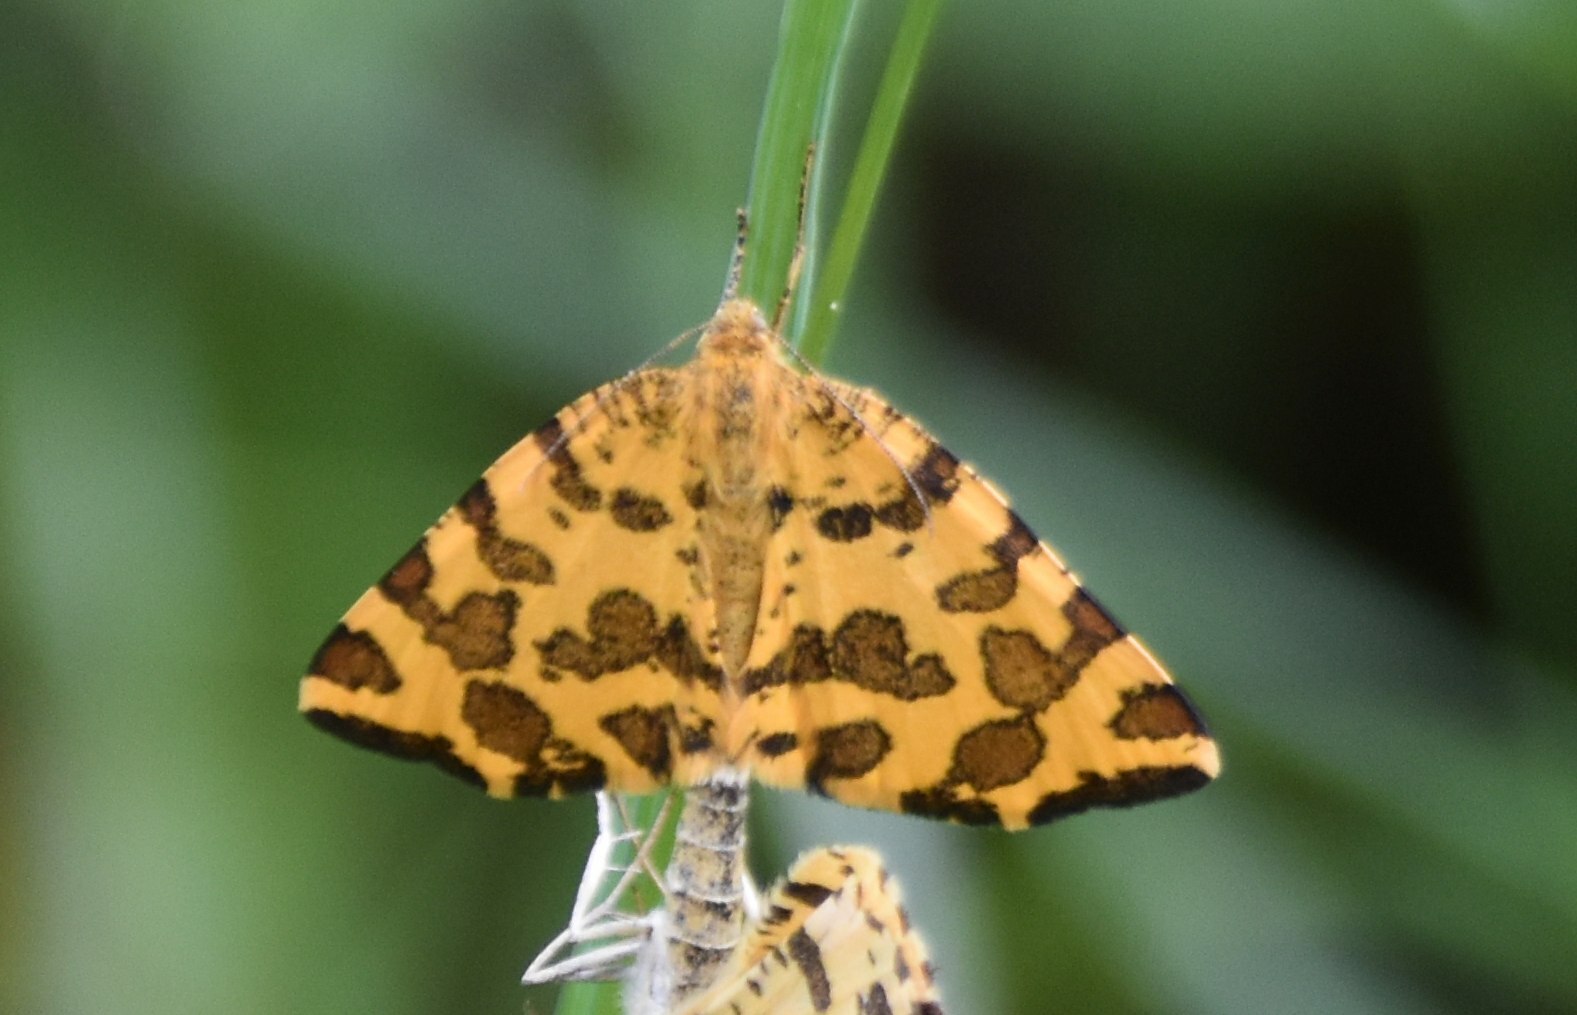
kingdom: Animalia
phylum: Arthropoda
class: Insecta
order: Lepidoptera
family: Geometridae
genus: Pseudopanthera
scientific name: Pseudopanthera macularia
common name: Speckled yellow
